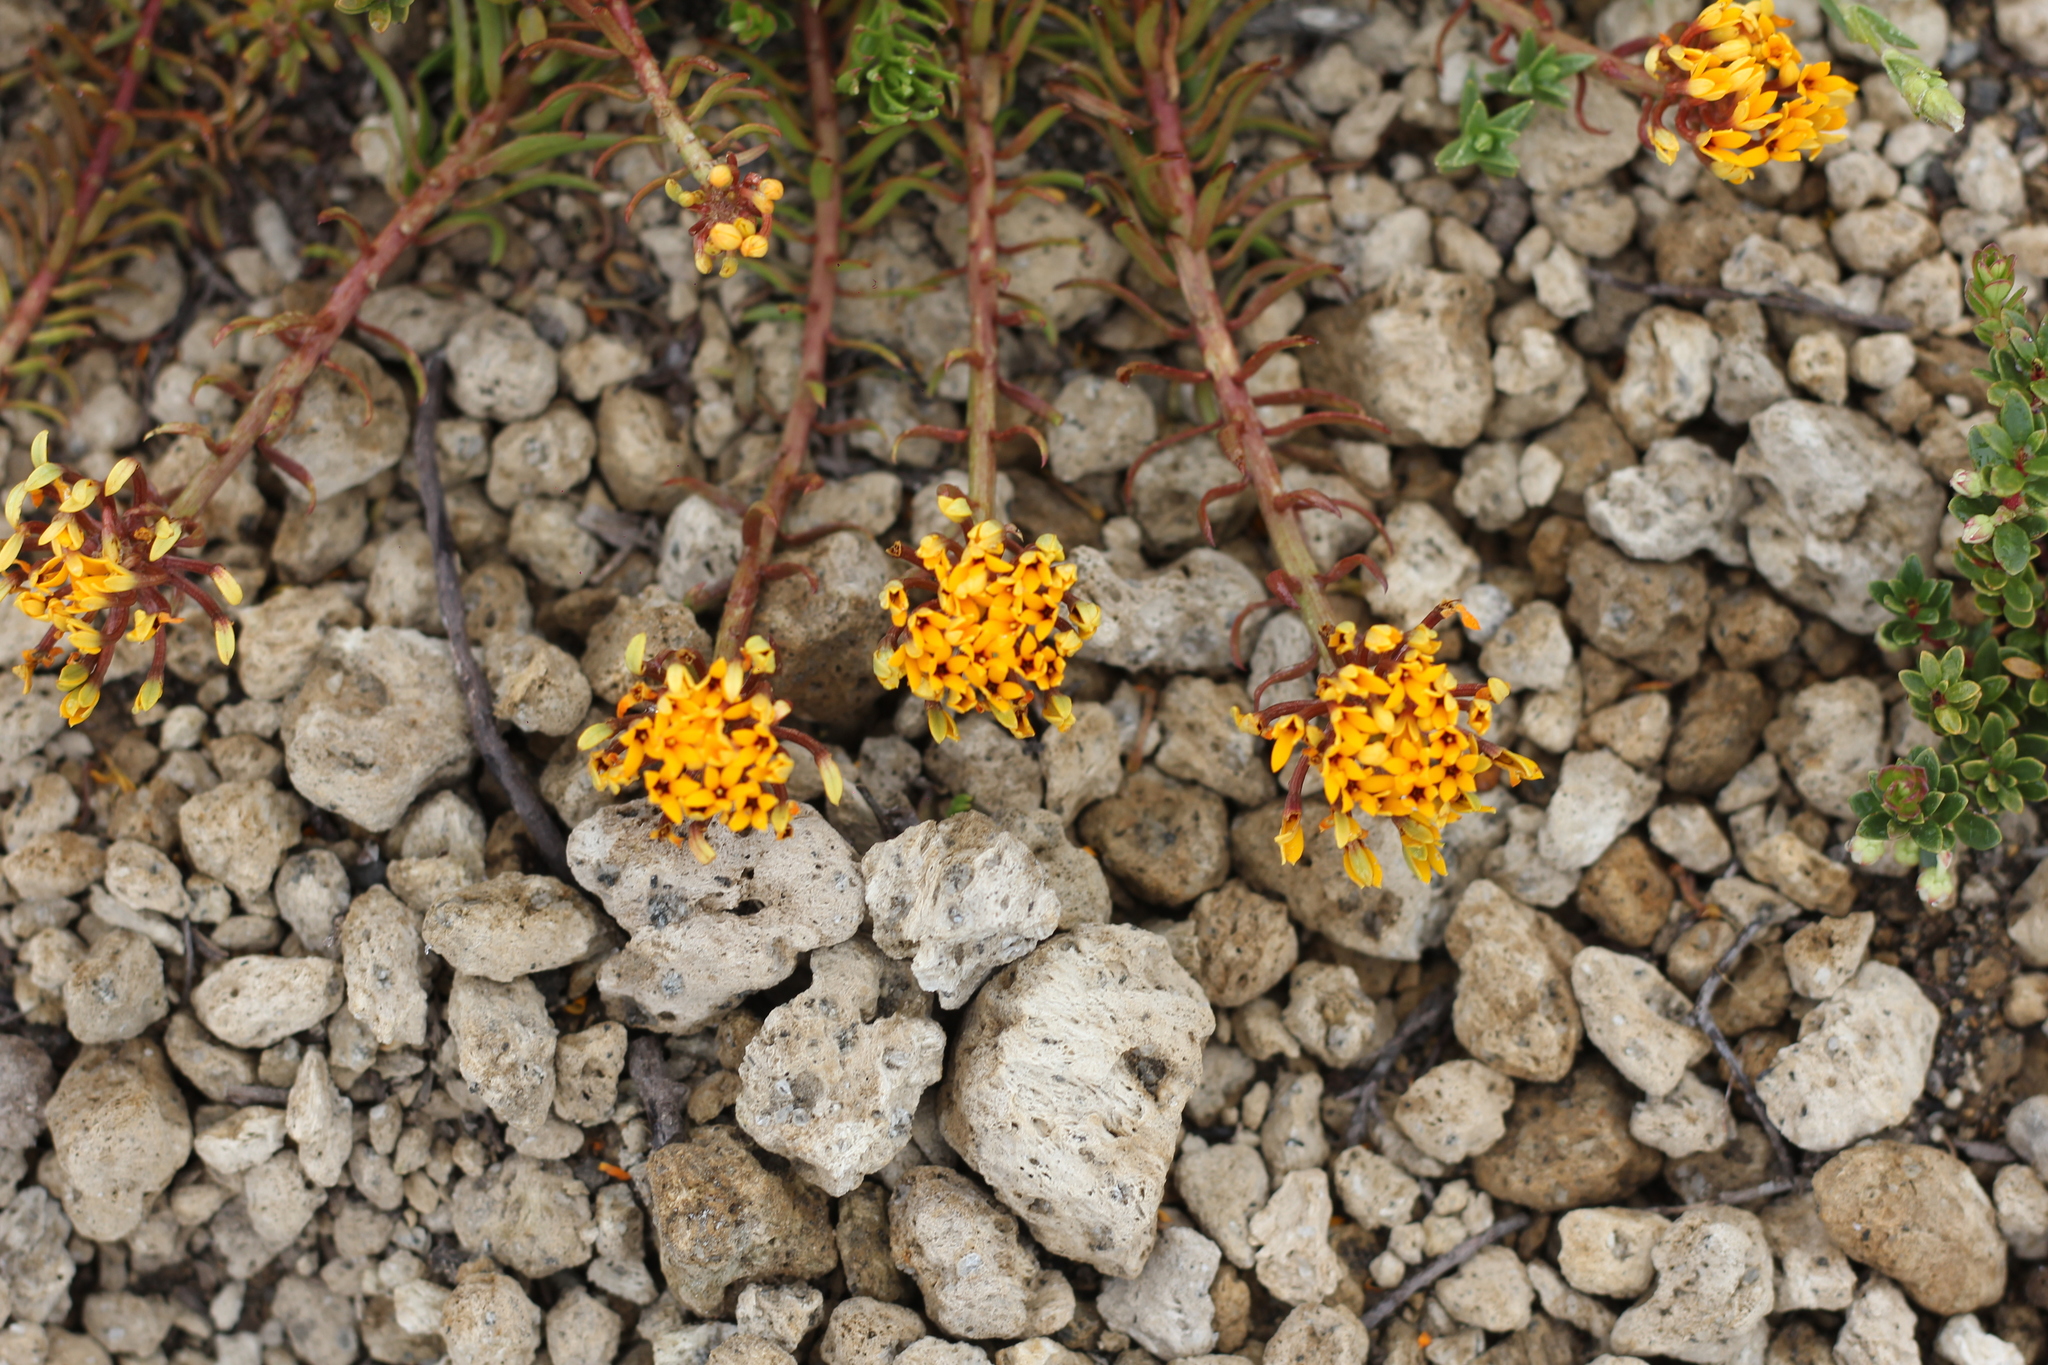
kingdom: Plantae
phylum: Tracheophyta
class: Magnoliopsida
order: Santalales
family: Schoepfiaceae
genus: Quinchamalium
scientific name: Quinchamalium chilense
